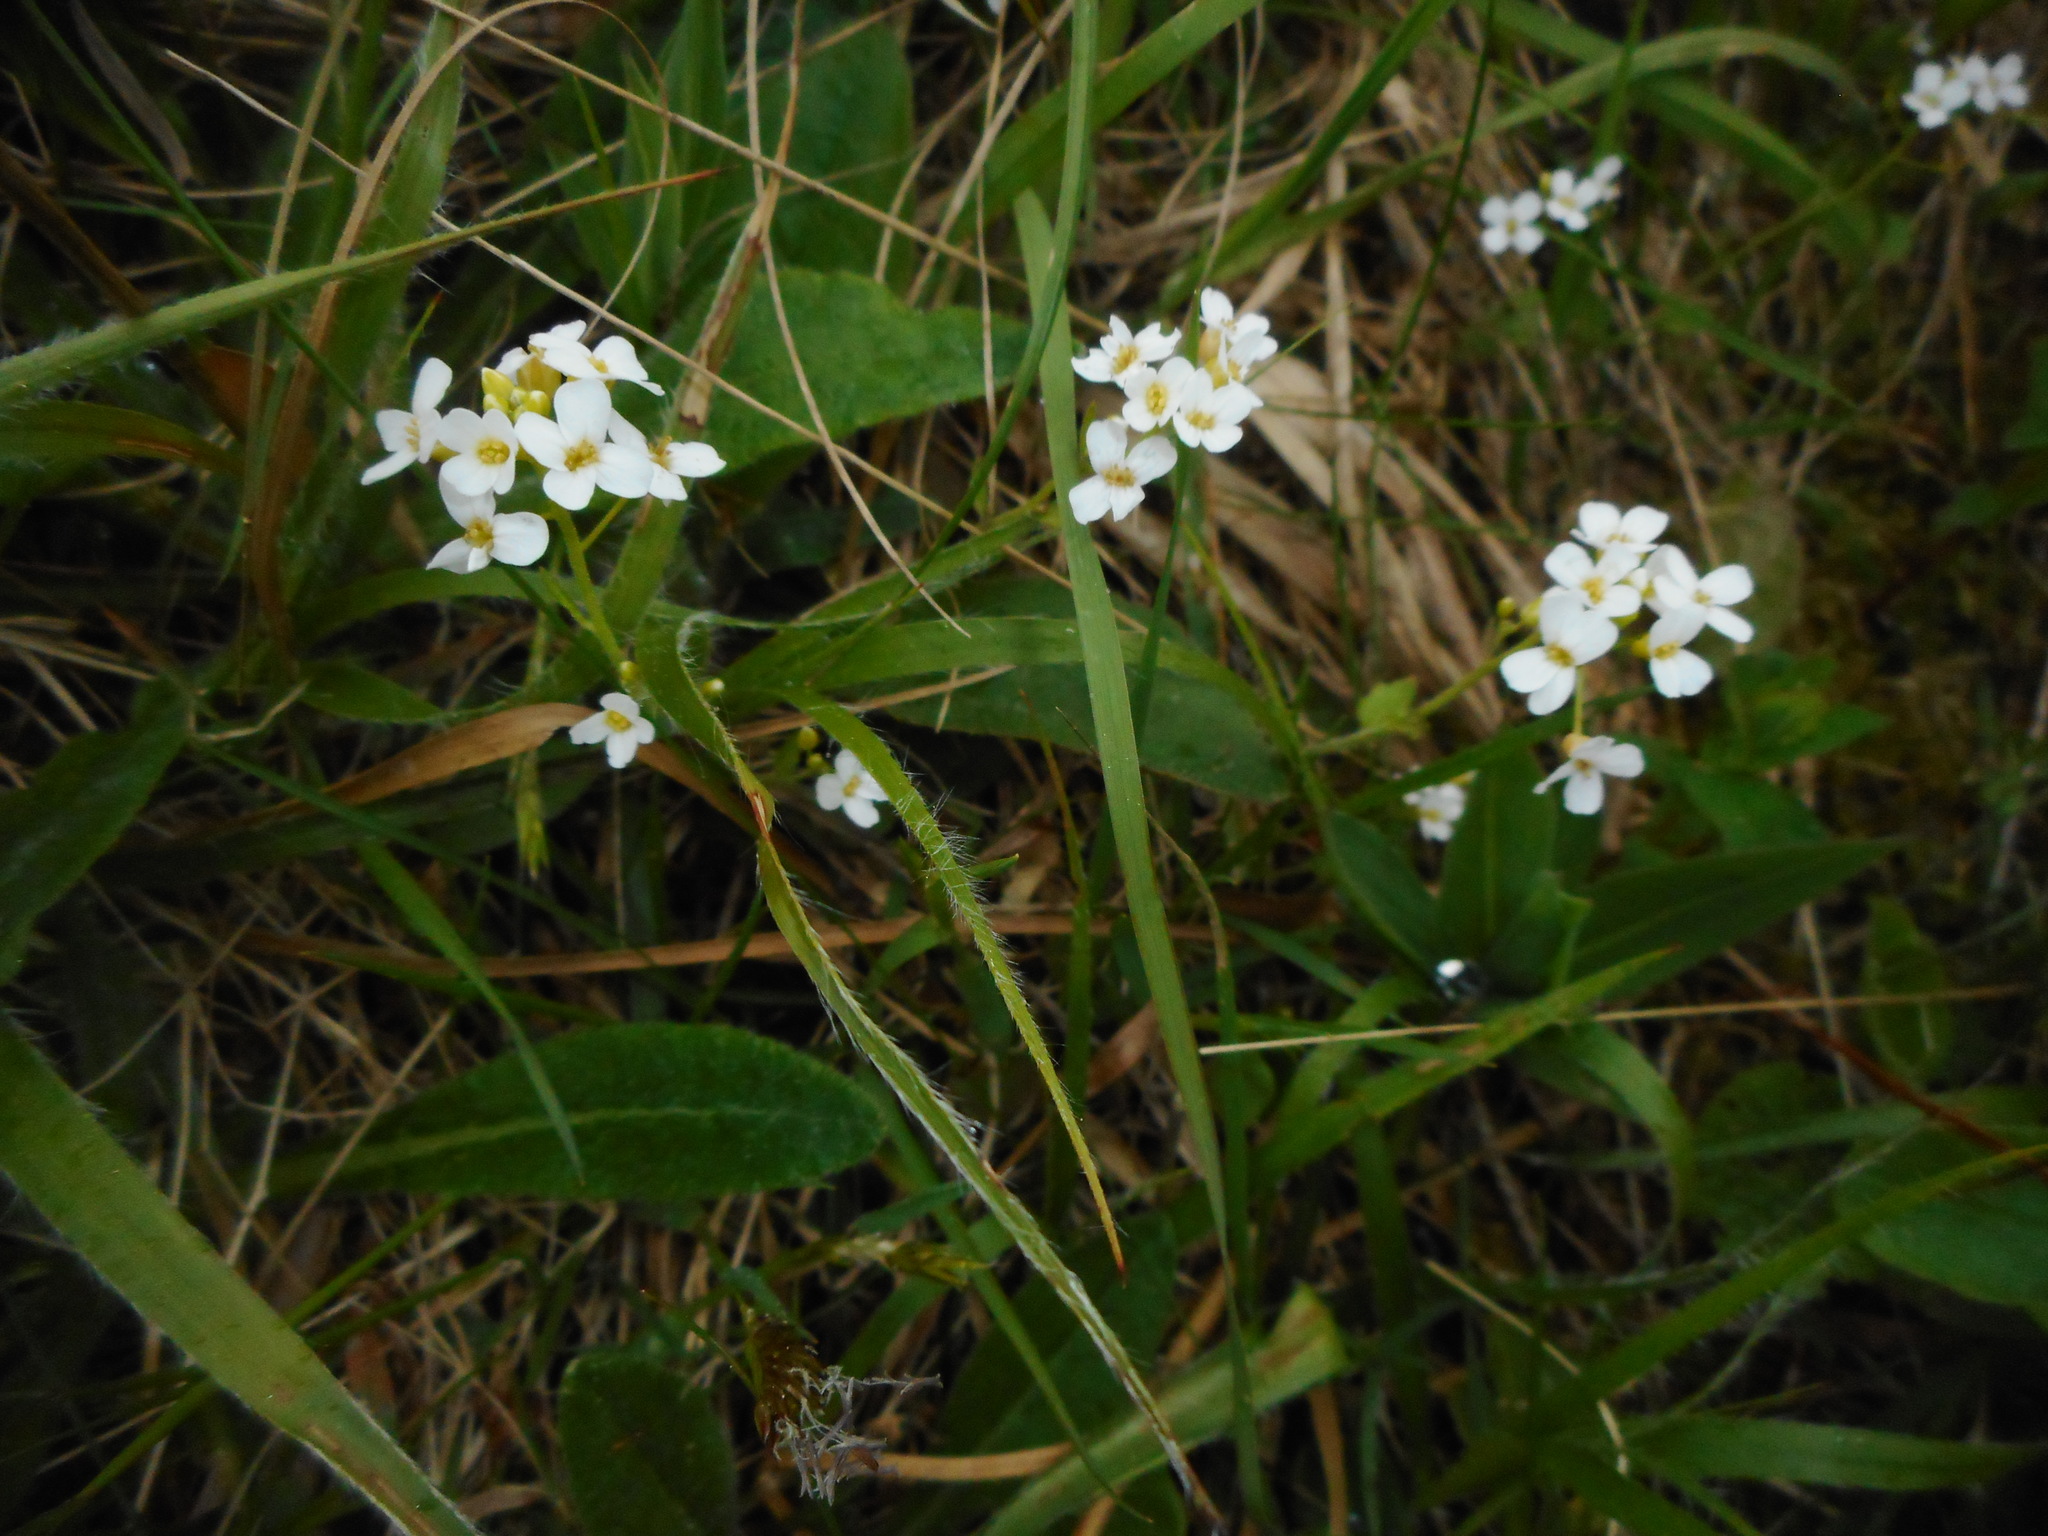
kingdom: Plantae
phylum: Tracheophyta
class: Magnoliopsida
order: Brassicales
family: Brassicaceae
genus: Arabidopsis
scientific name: Arabidopsis halleri
